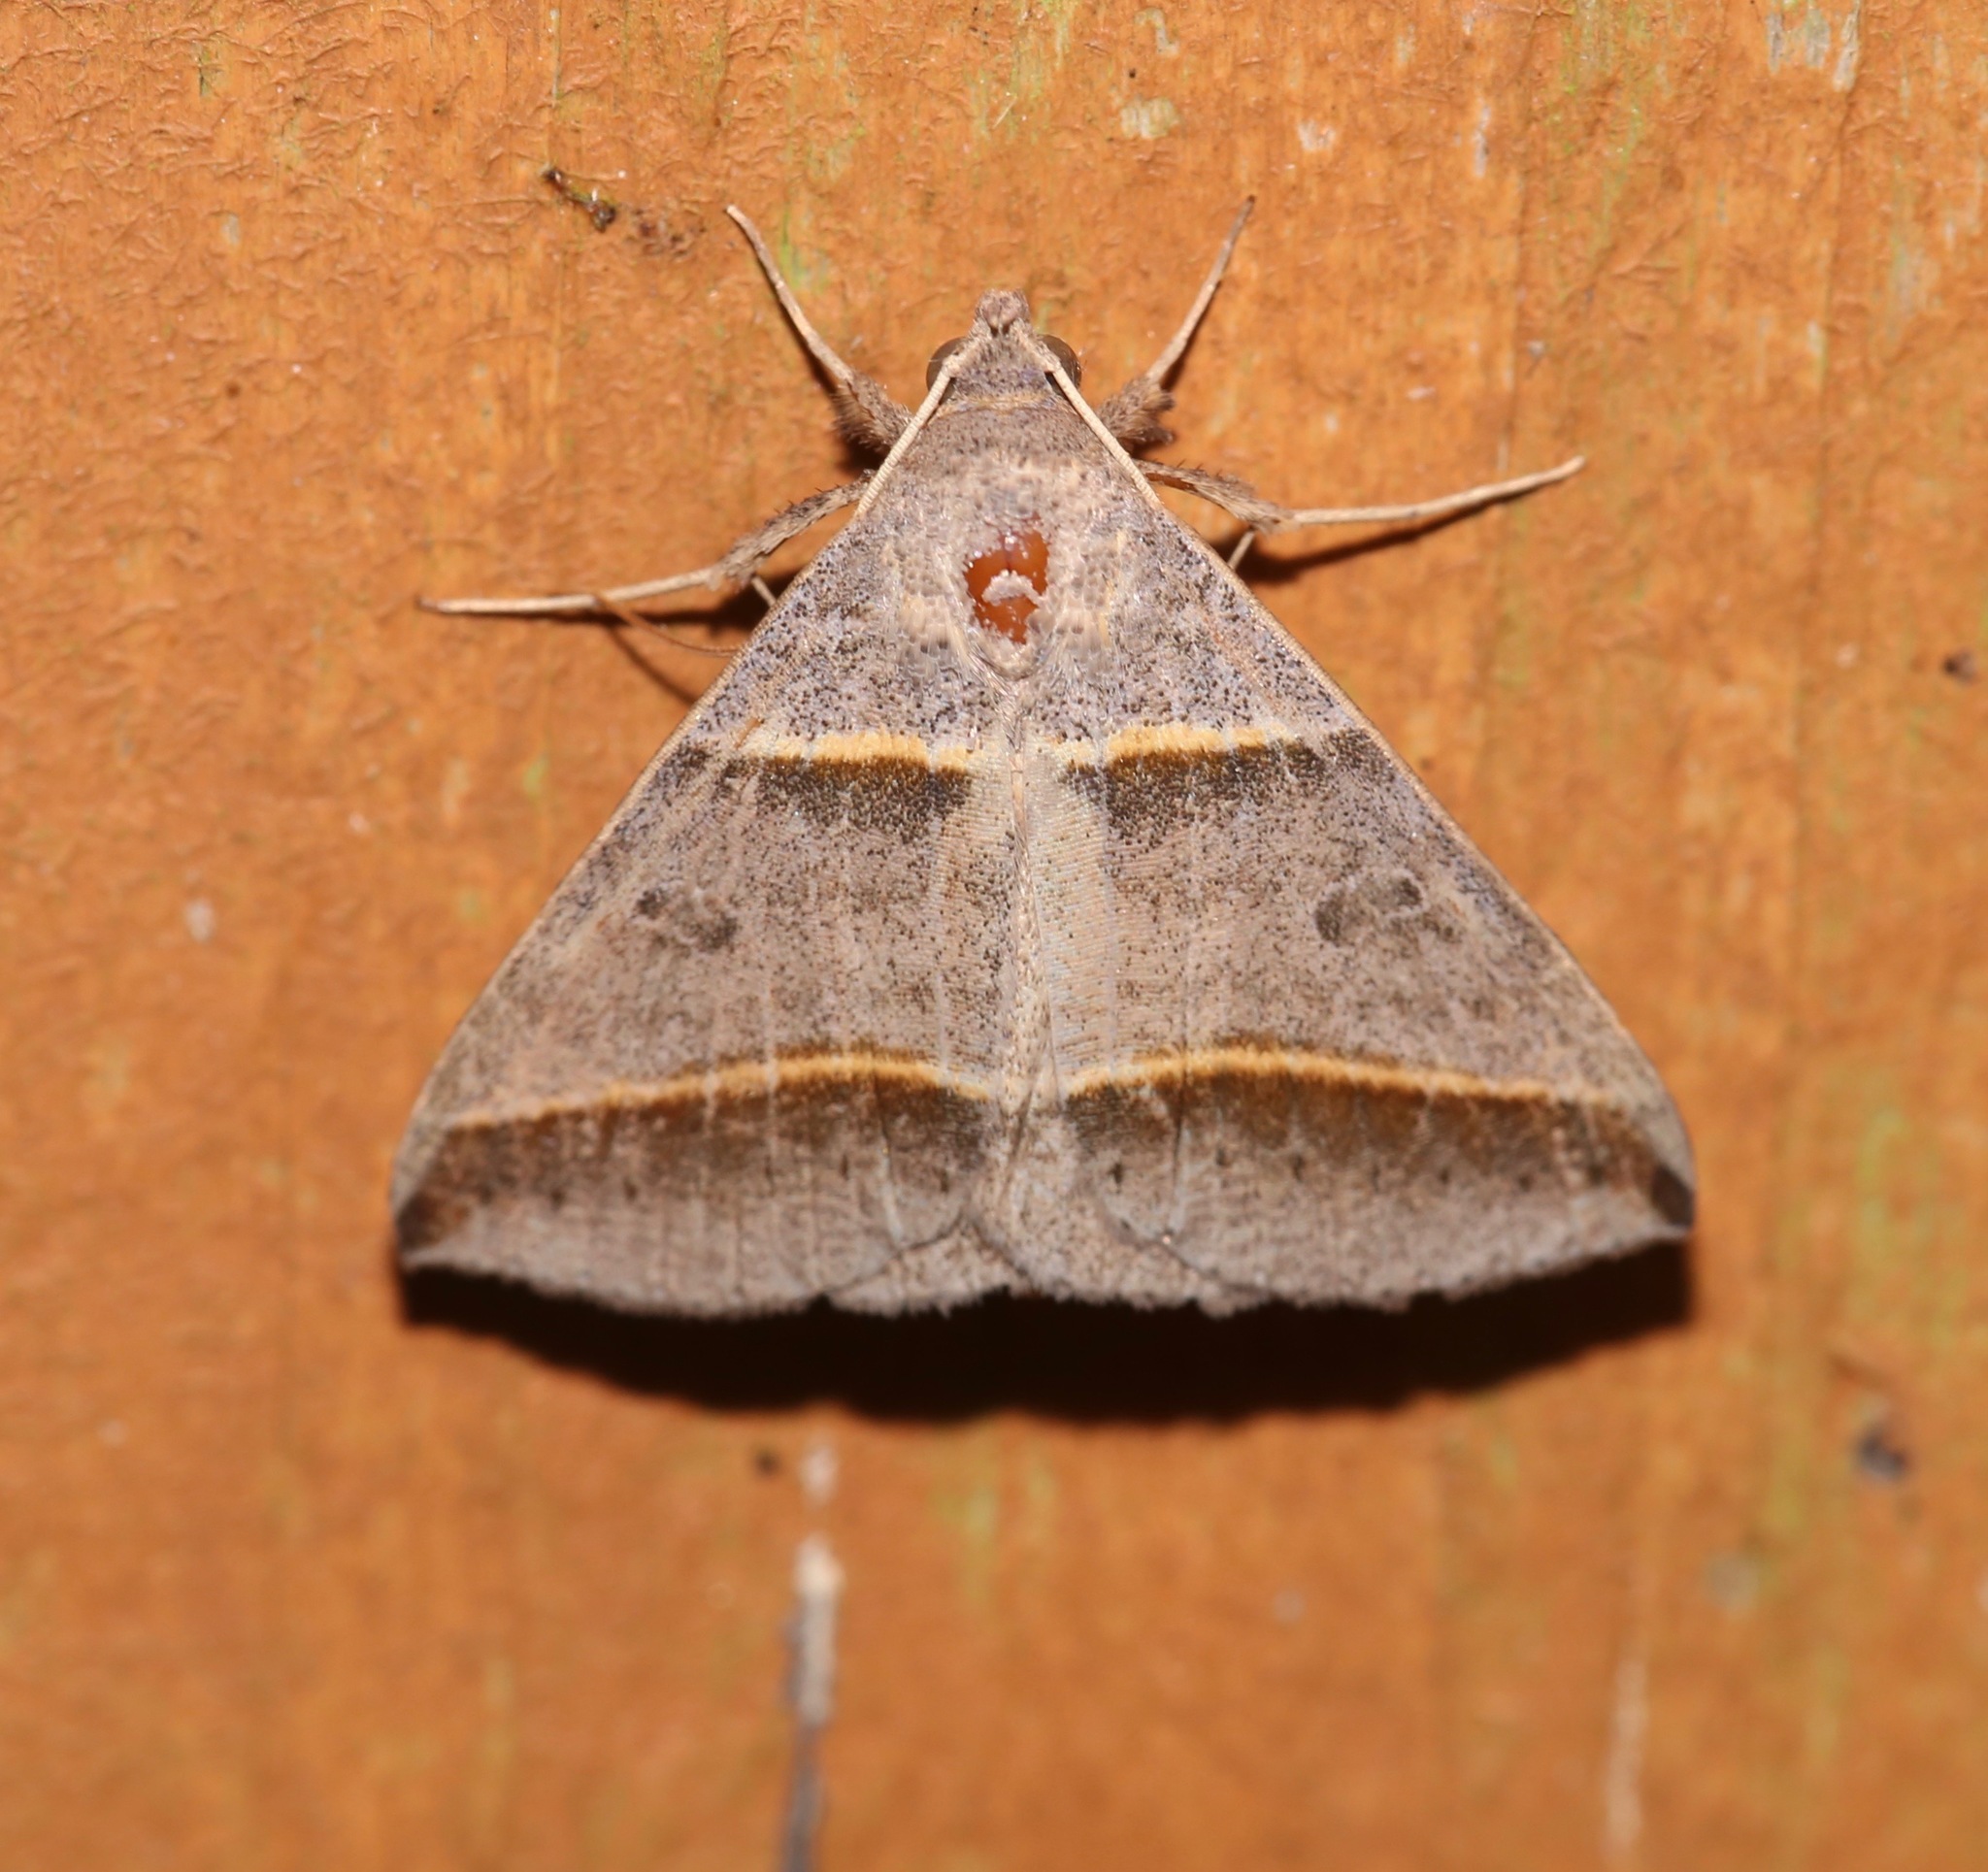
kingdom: Animalia
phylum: Arthropoda
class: Insecta
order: Lepidoptera
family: Erebidae
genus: Ptichodis
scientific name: Ptichodis vinculum
